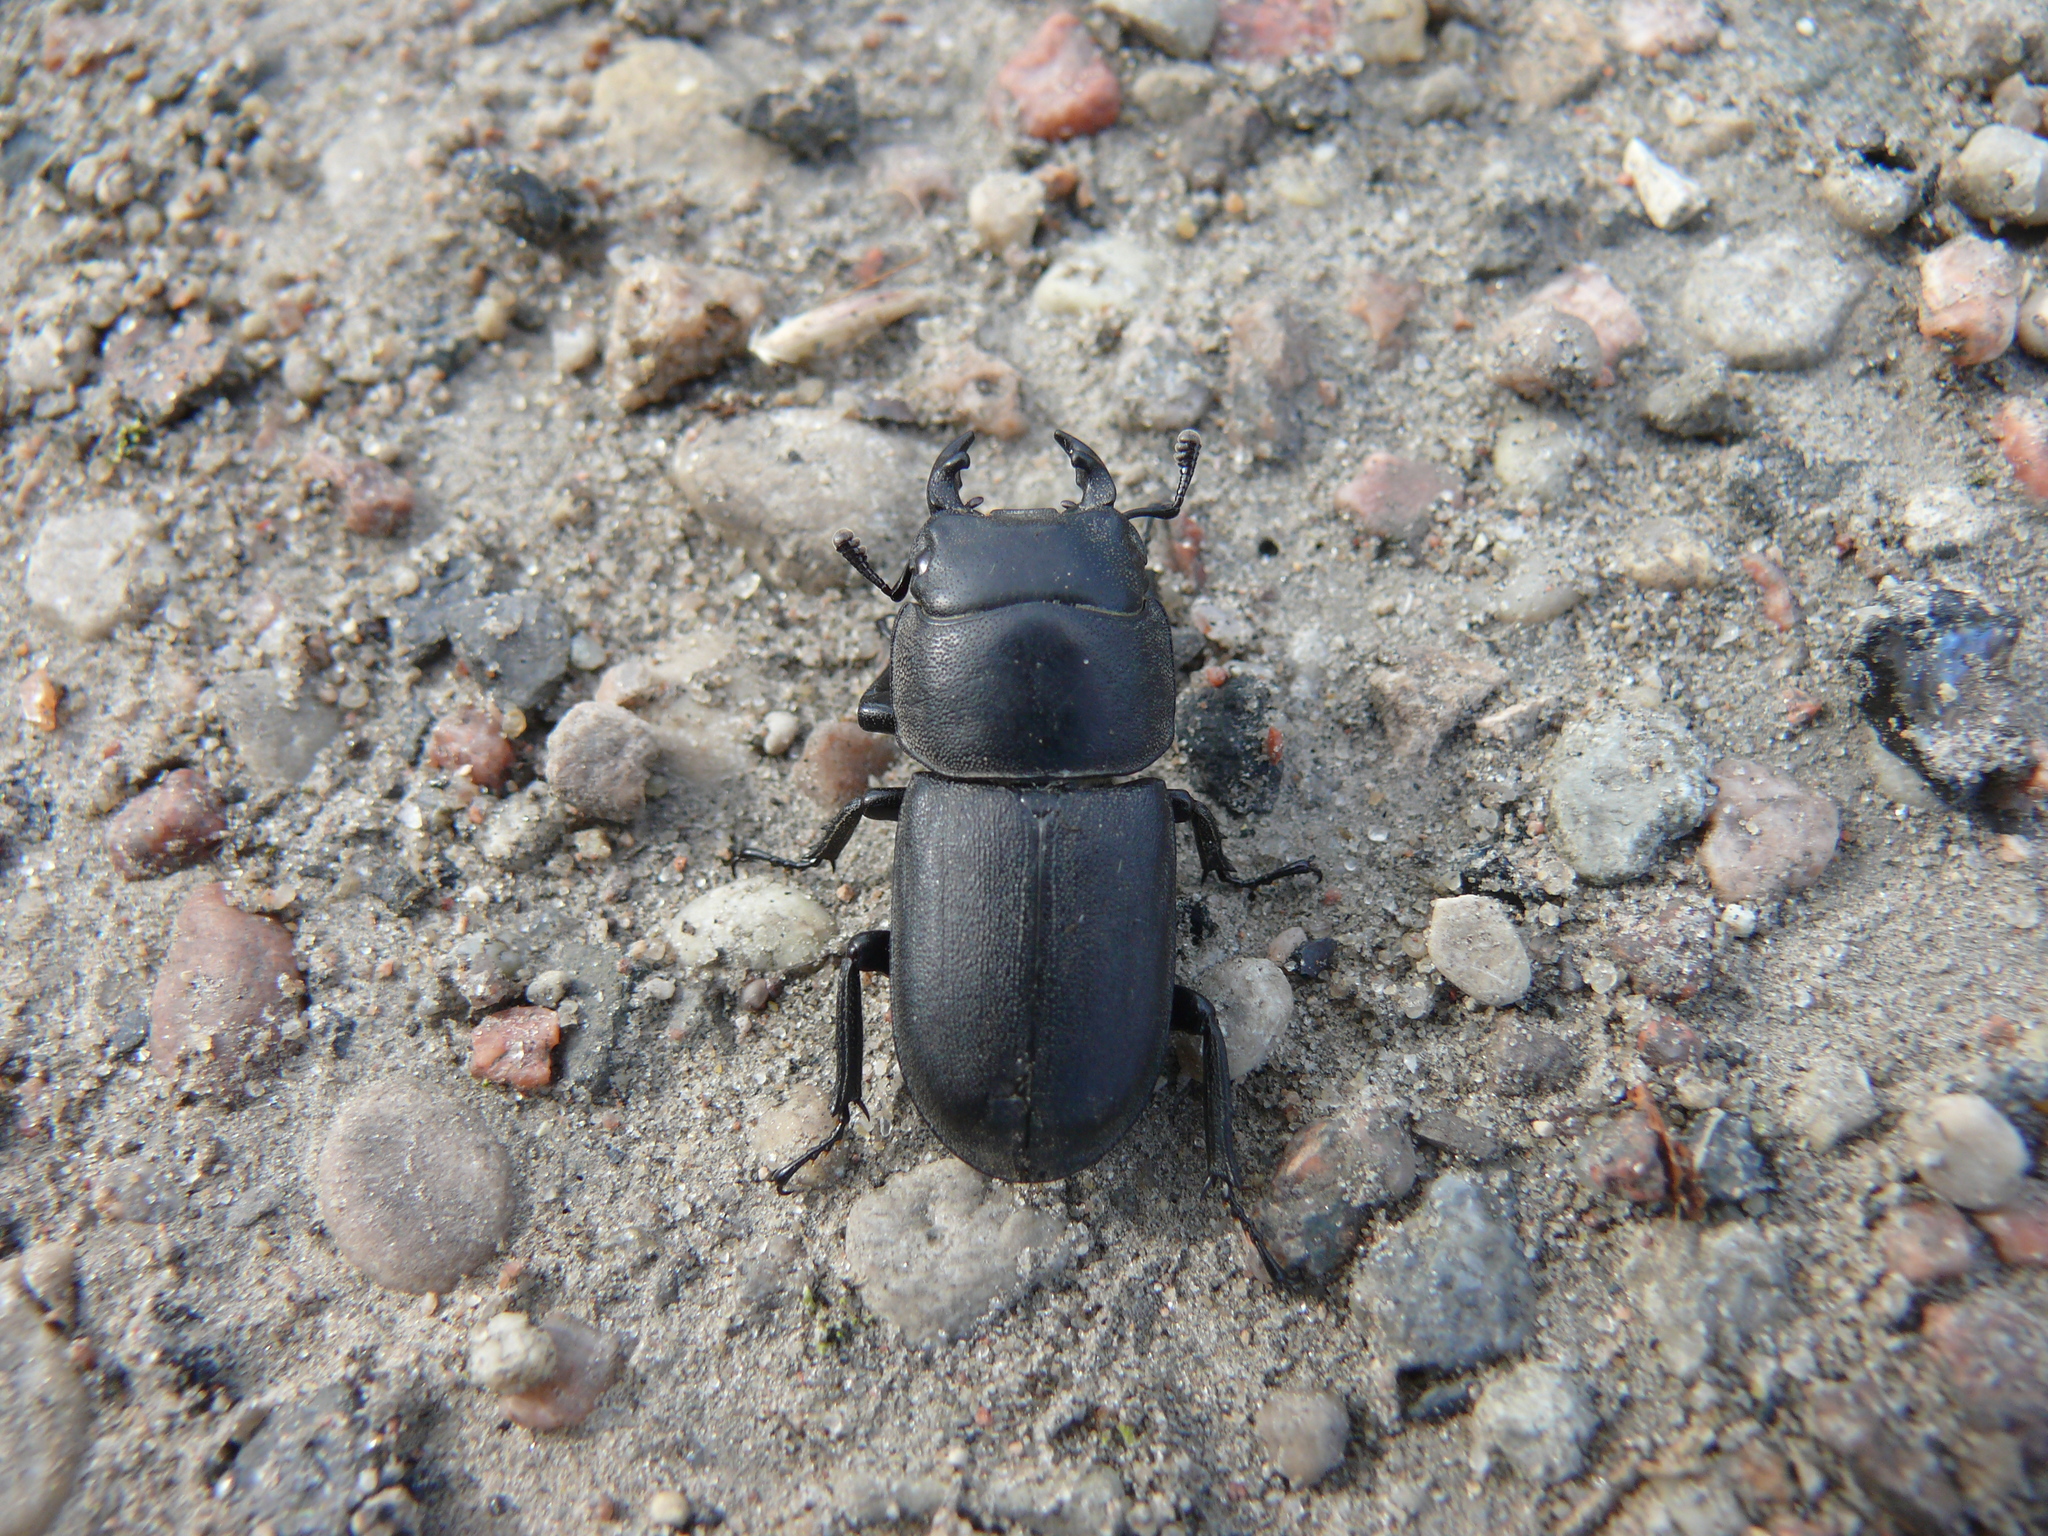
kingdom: Animalia
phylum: Arthropoda
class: Insecta
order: Coleoptera
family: Lucanidae
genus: Dorcus
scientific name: Dorcus parallelipipedus
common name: Lesser stag beetle
